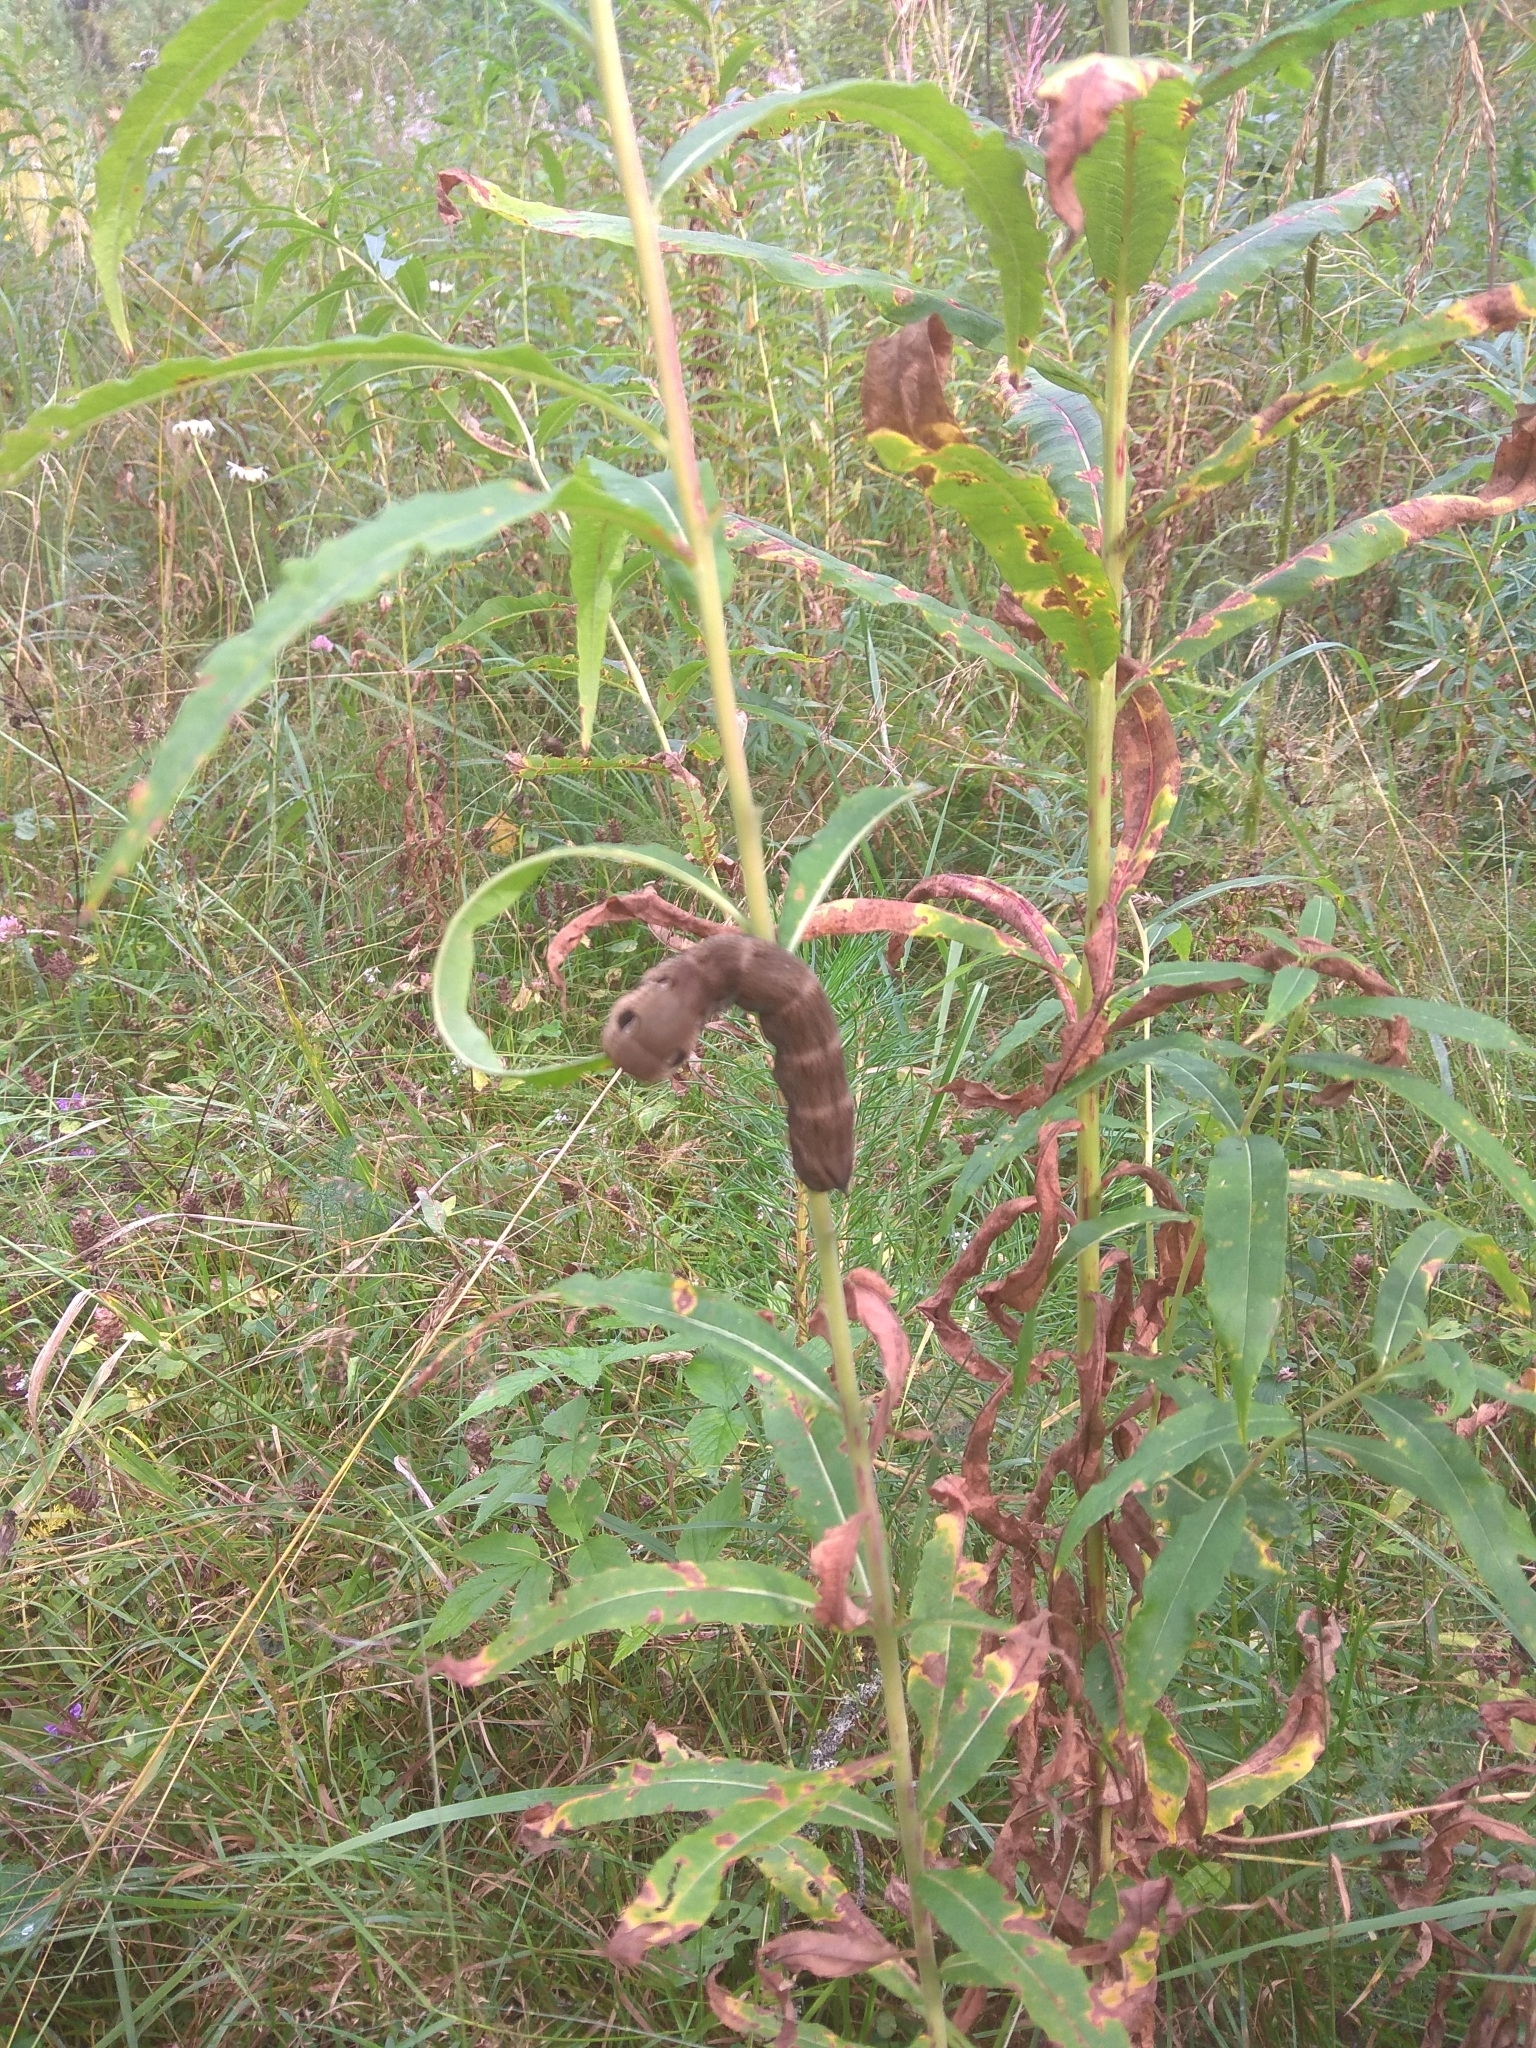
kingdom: Animalia
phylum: Arthropoda
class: Insecta
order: Lepidoptera
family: Sphingidae
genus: Deilephila
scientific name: Deilephila elpenor
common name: Elephant hawk-moth
